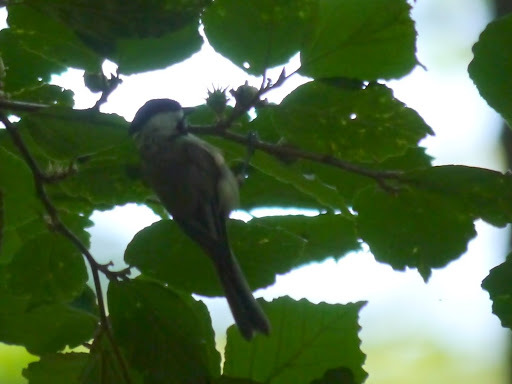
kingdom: Animalia
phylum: Chordata
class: Aves
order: Passeriformes
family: Paridae
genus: Poecile
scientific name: Poecile carolinensis
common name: Carolina chickadee
